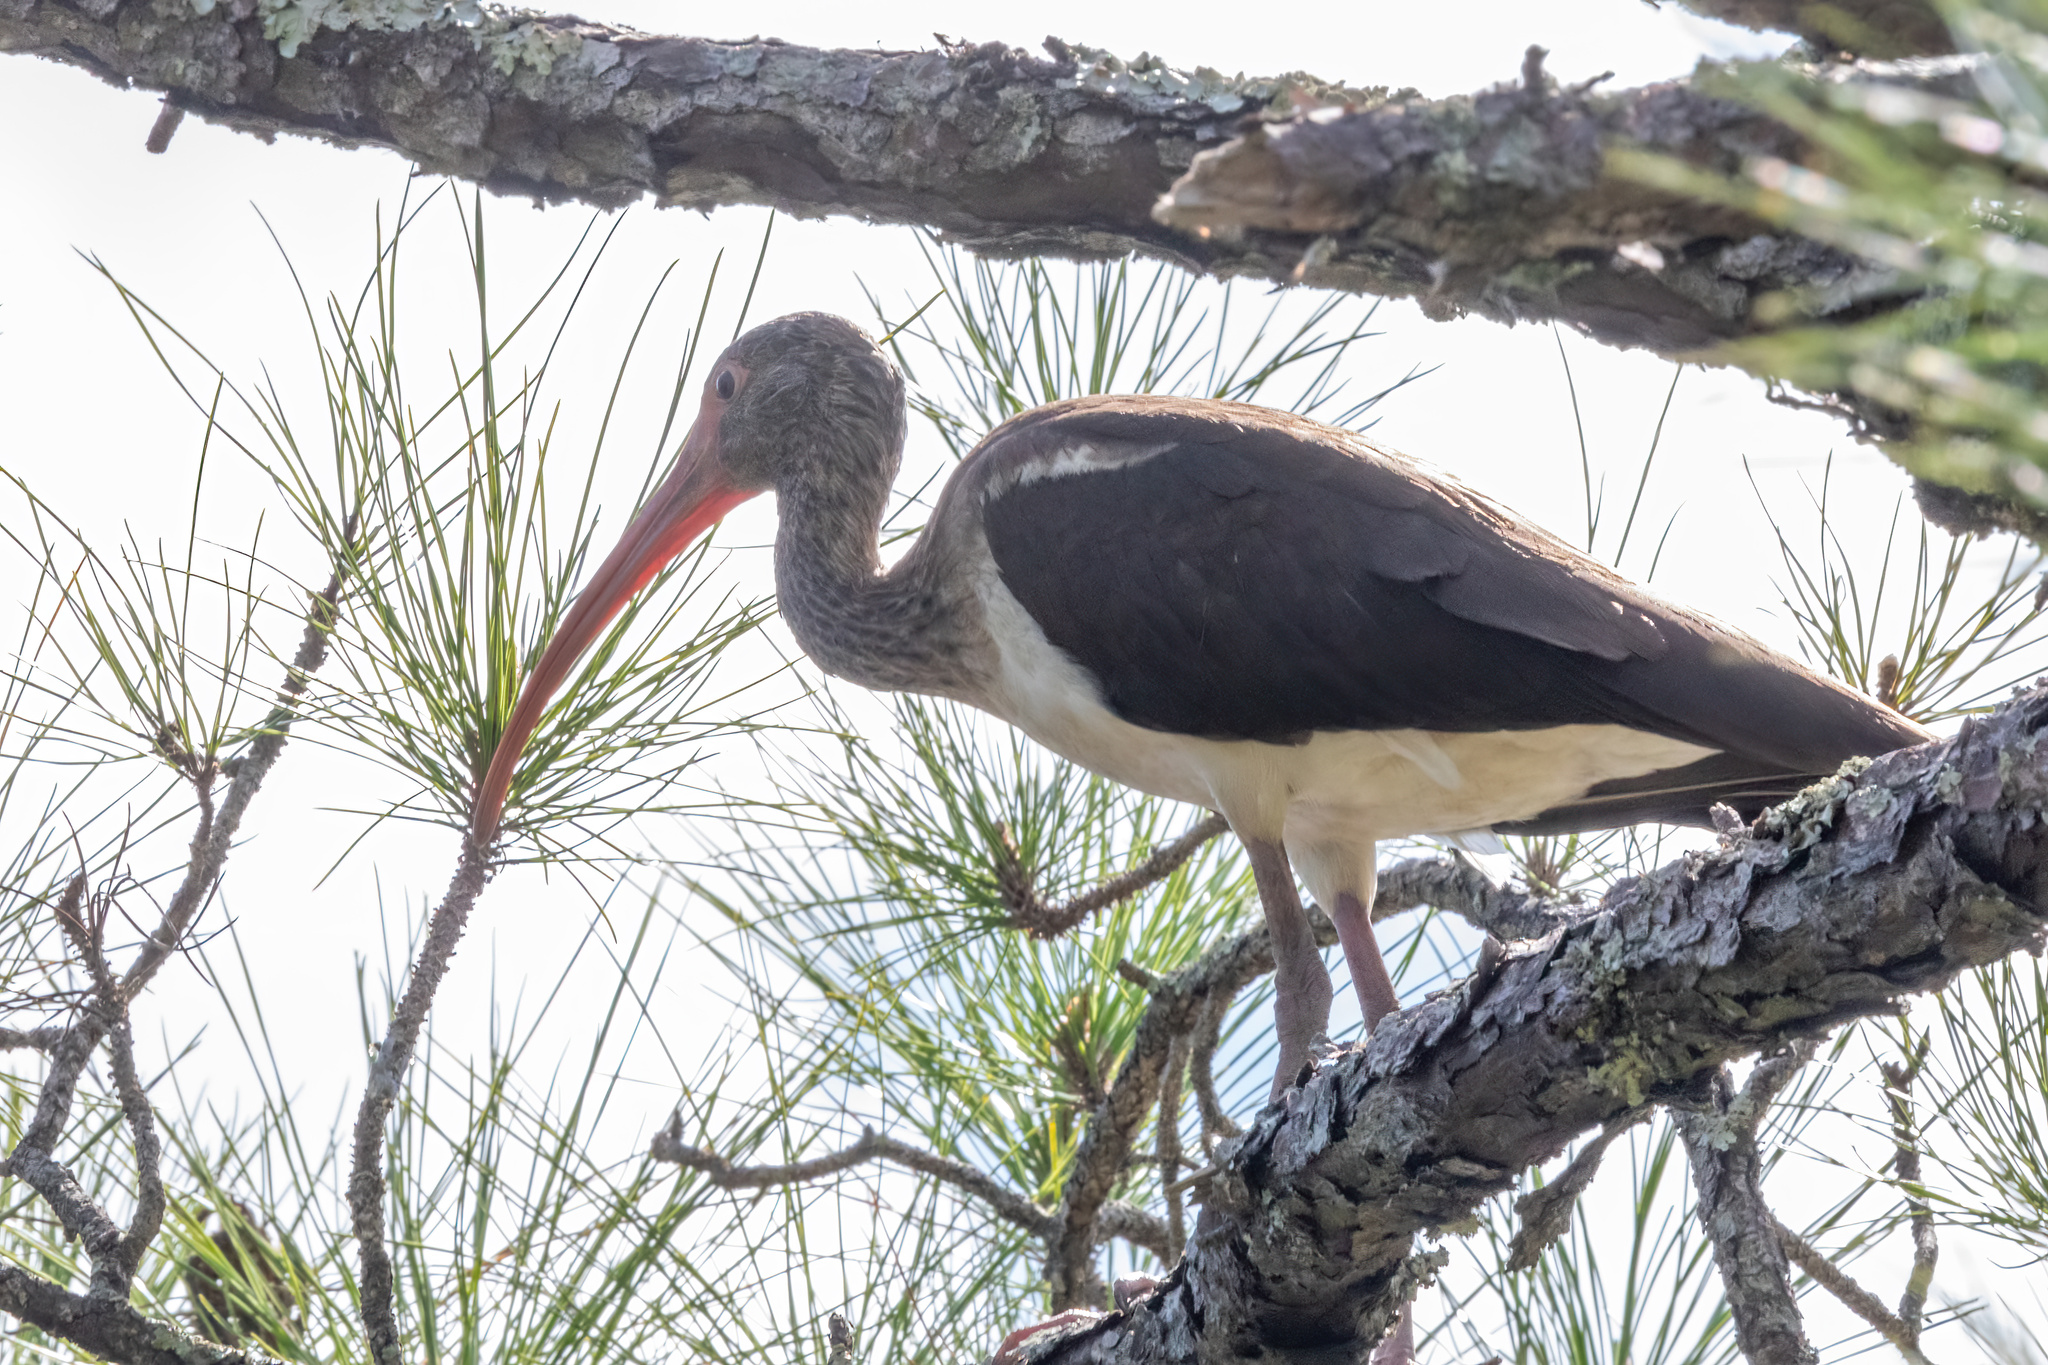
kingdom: Animalia
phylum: Chordata
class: Aves
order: Pelecaniformes
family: Threskiornithidae
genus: Eudocimus
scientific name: Eudocimus albus
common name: White ibis
